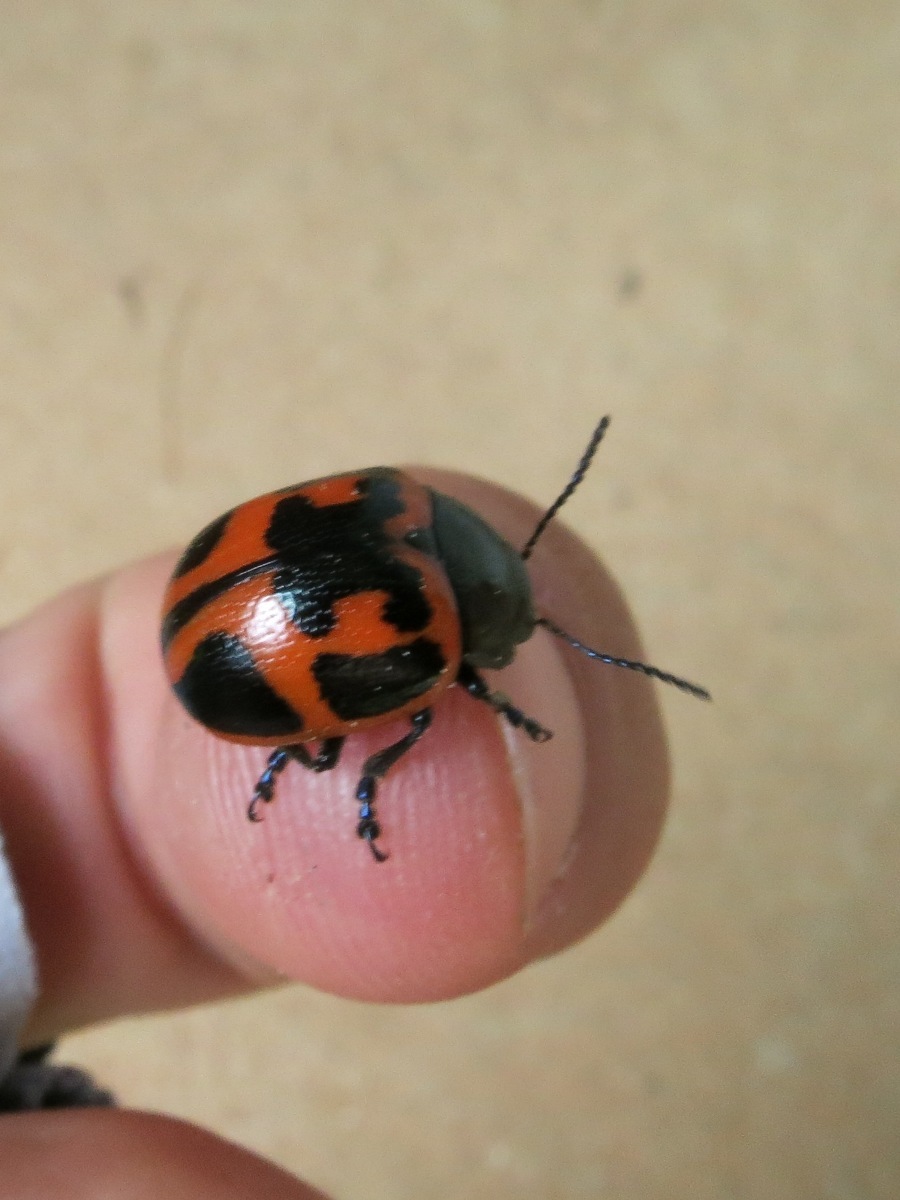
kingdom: Animalia
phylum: Arthropoda
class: Insecta
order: Coleoptera
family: Chrysomelidae
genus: Labidomera
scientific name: Labidomera clivicollis
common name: Swamp milkweed leaf beetle
